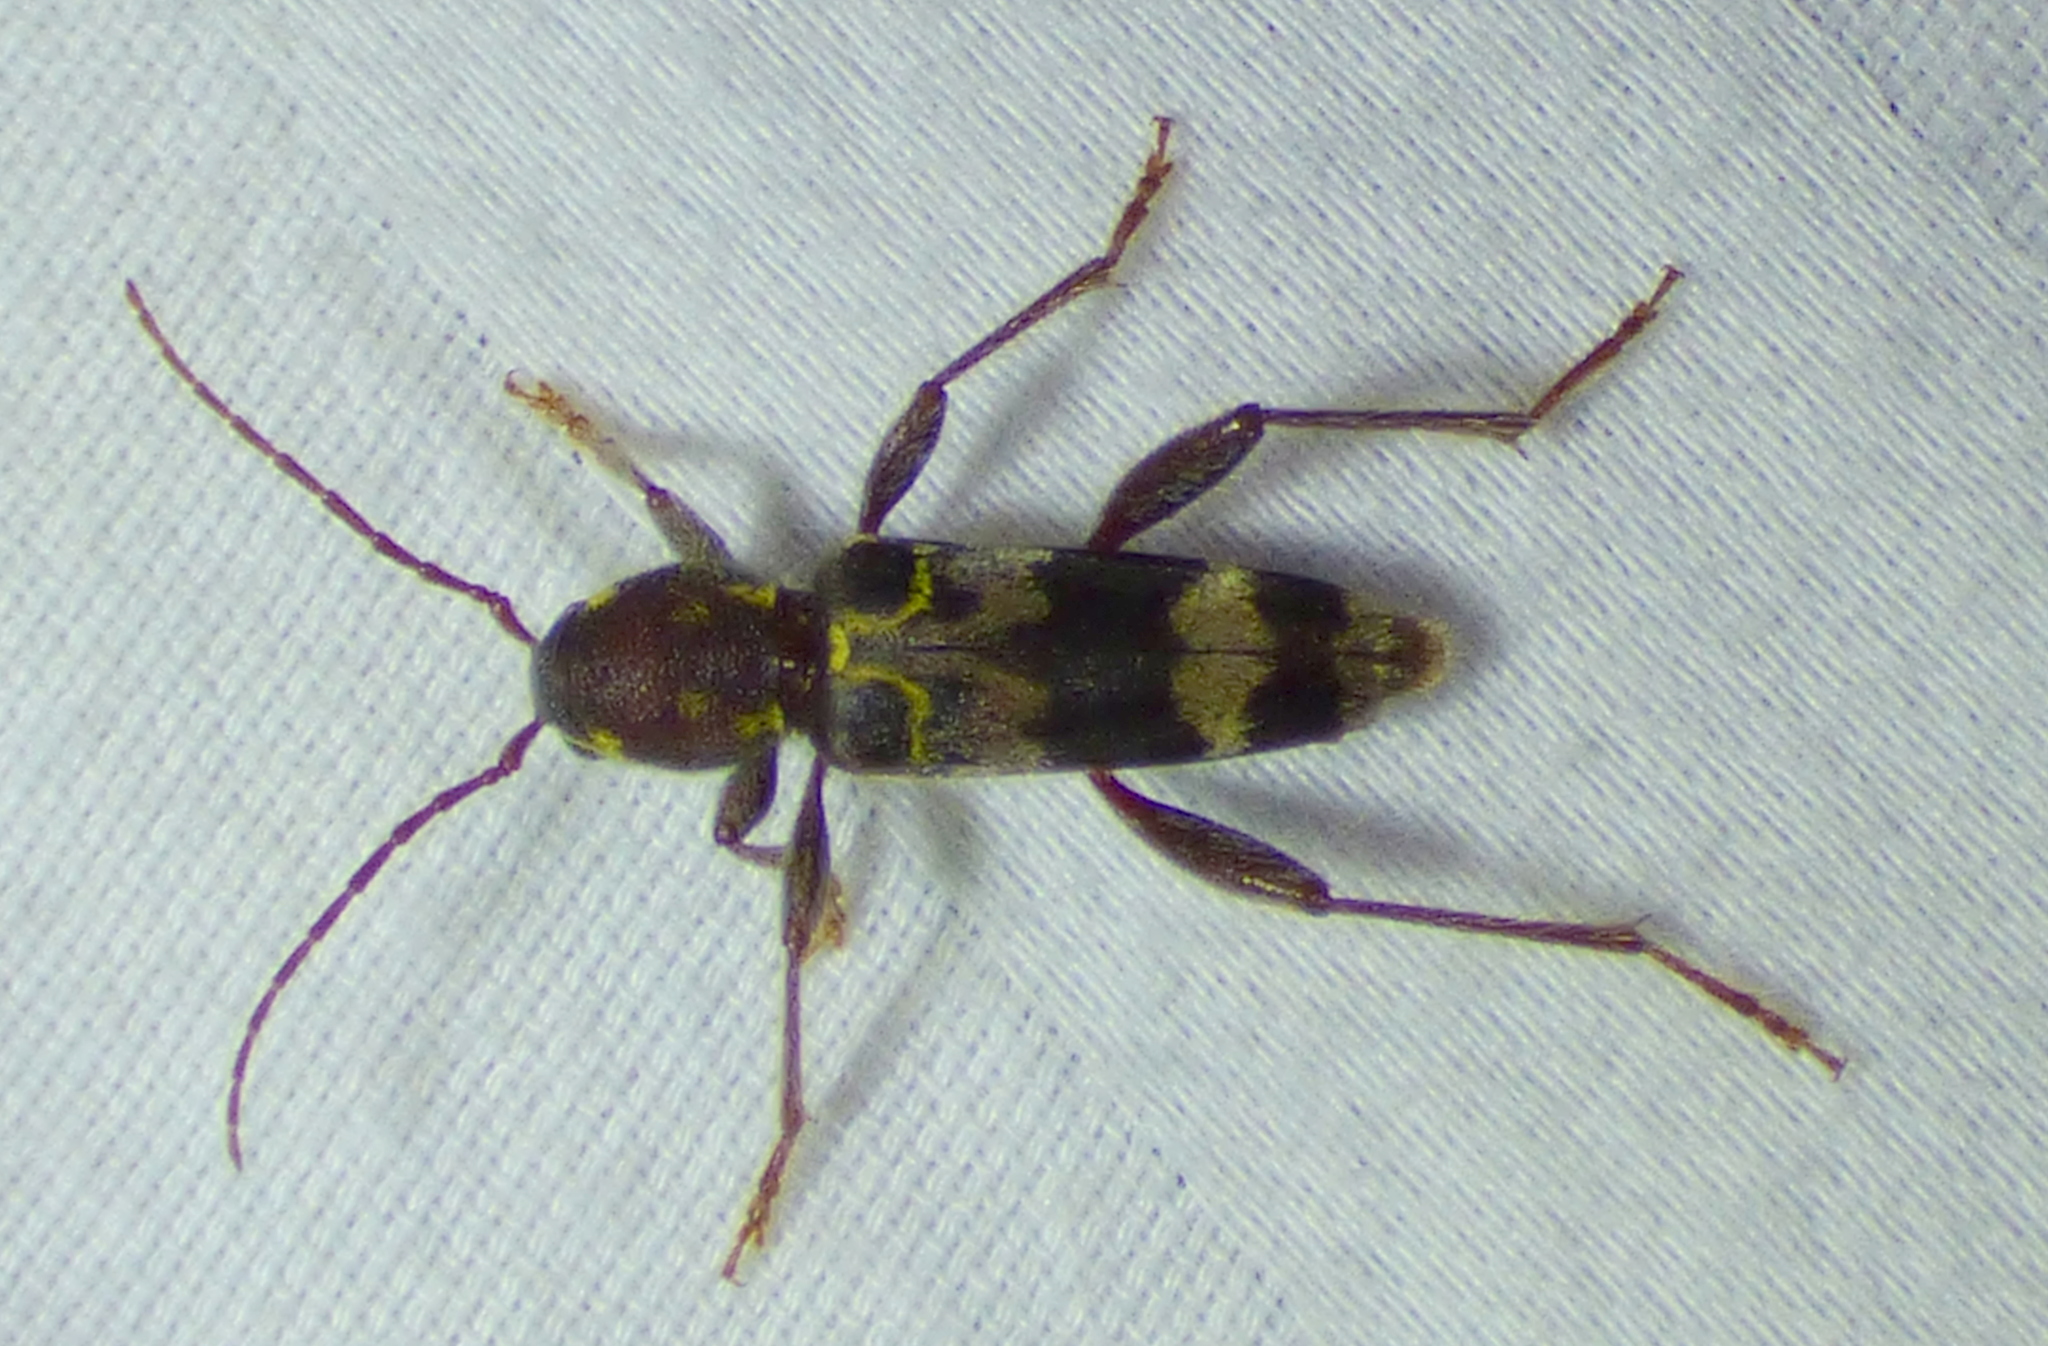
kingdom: Animalia
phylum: Arthropoda
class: Insecta
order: Coleoptera
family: Cerambycidae
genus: Xylotrechus
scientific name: Xylotrechus colonus
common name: Long-horned beetle
